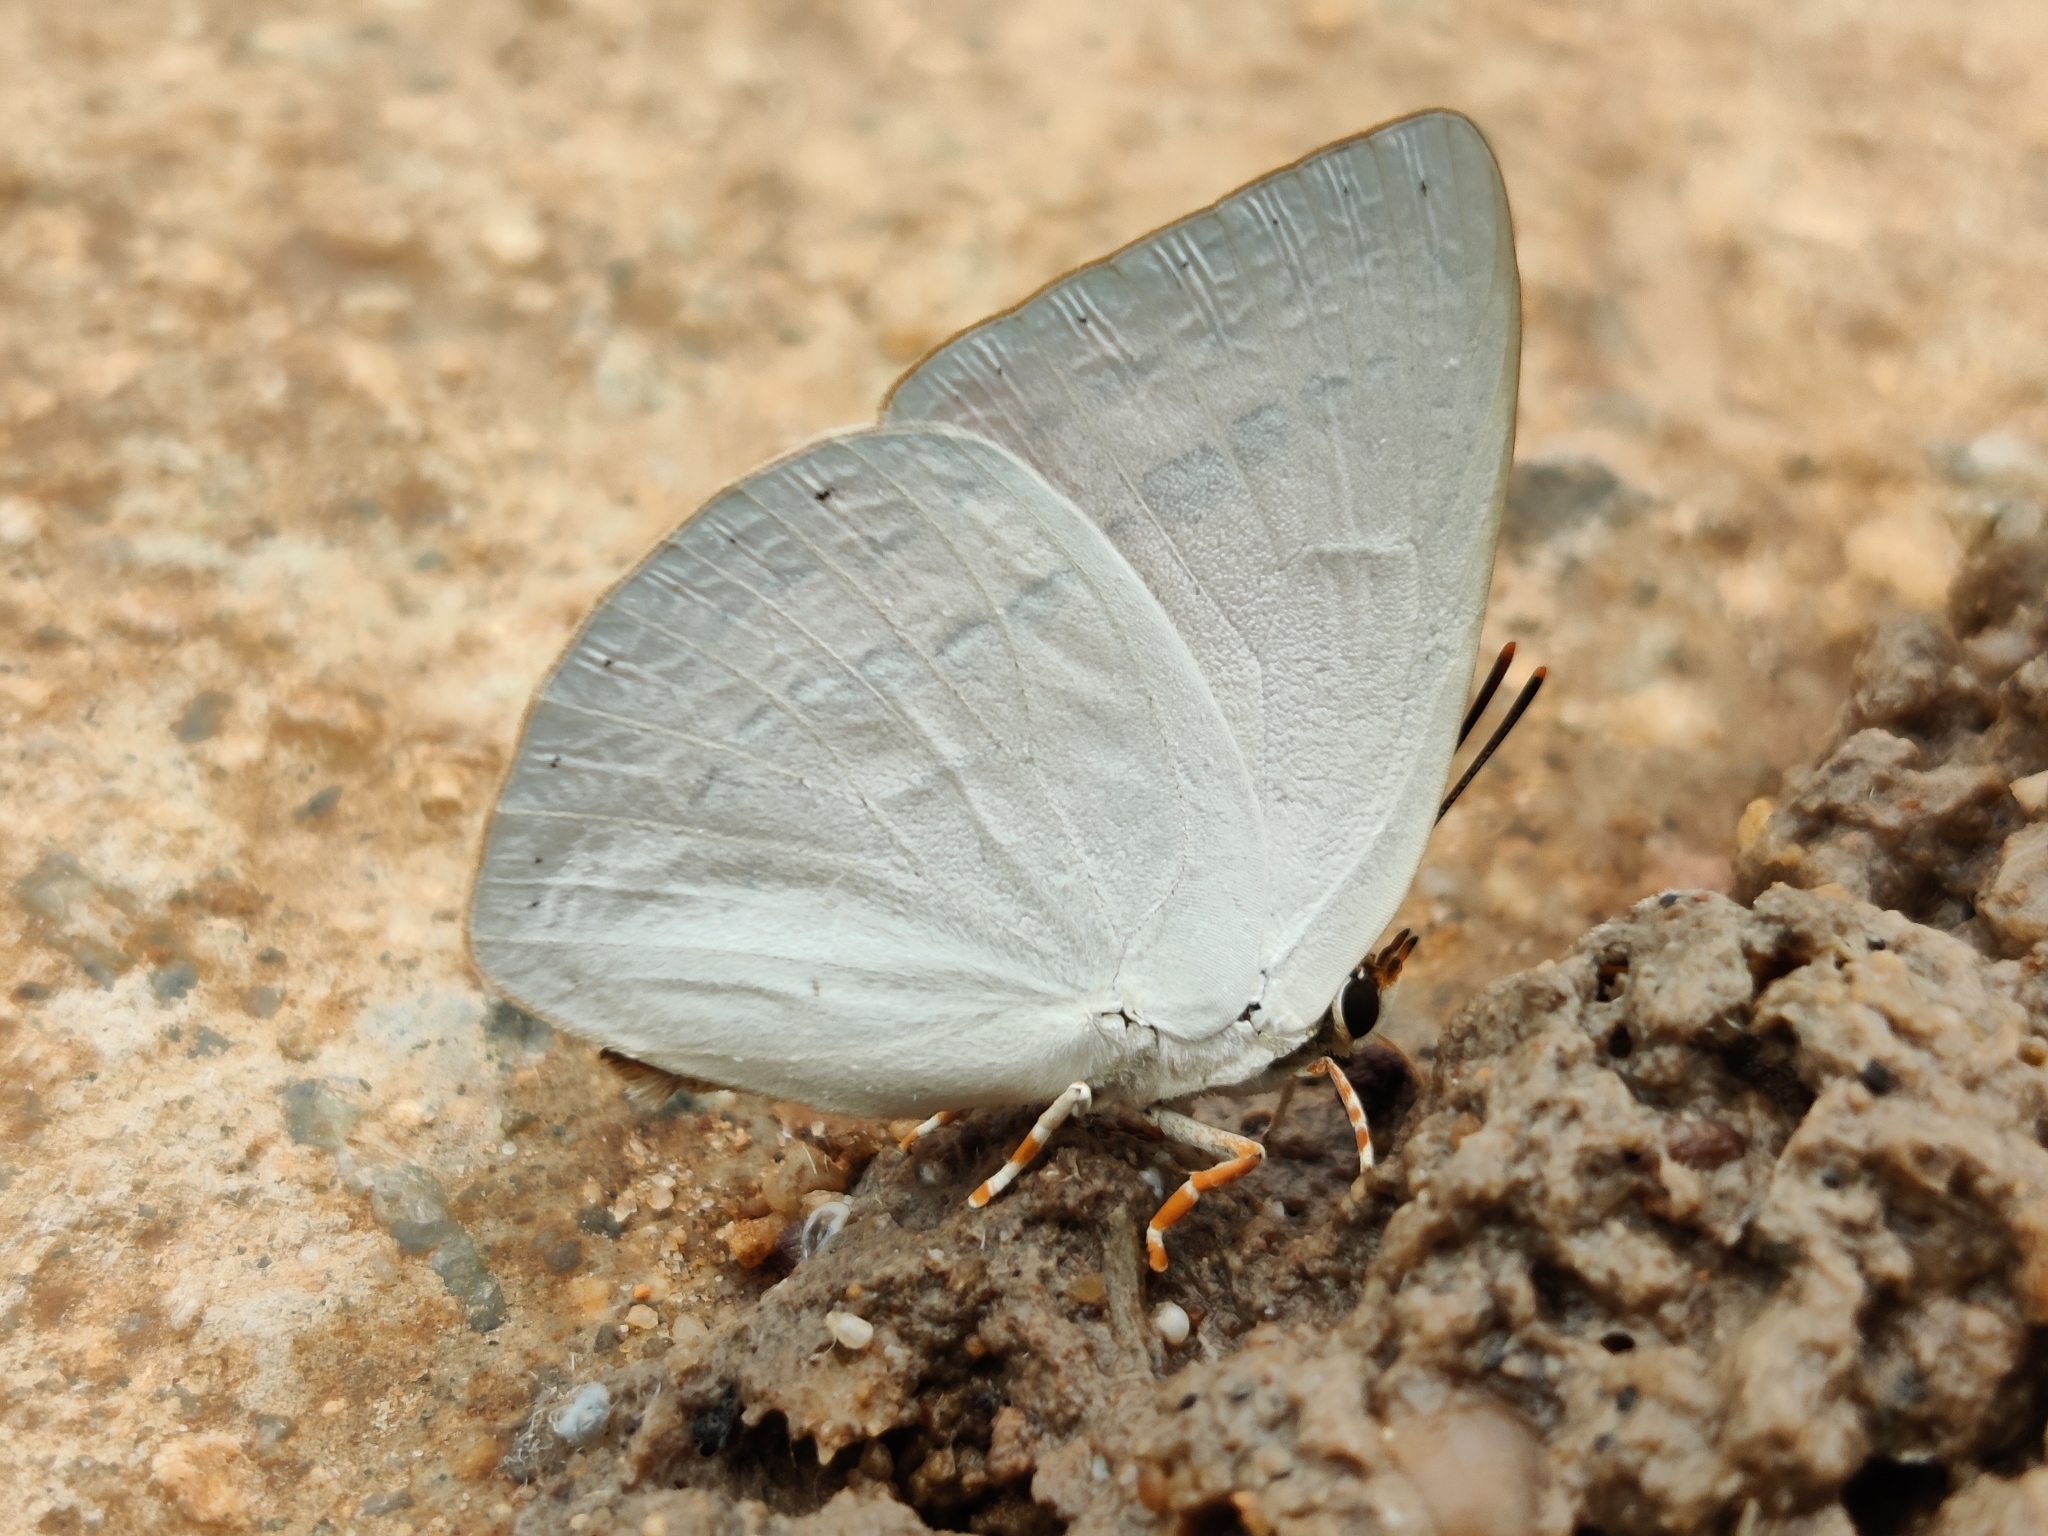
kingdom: Animalia
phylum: Arthropoda
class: Insecta
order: Lepidoptera
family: Lycaenidae
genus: Curetis
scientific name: Curetis thetis
